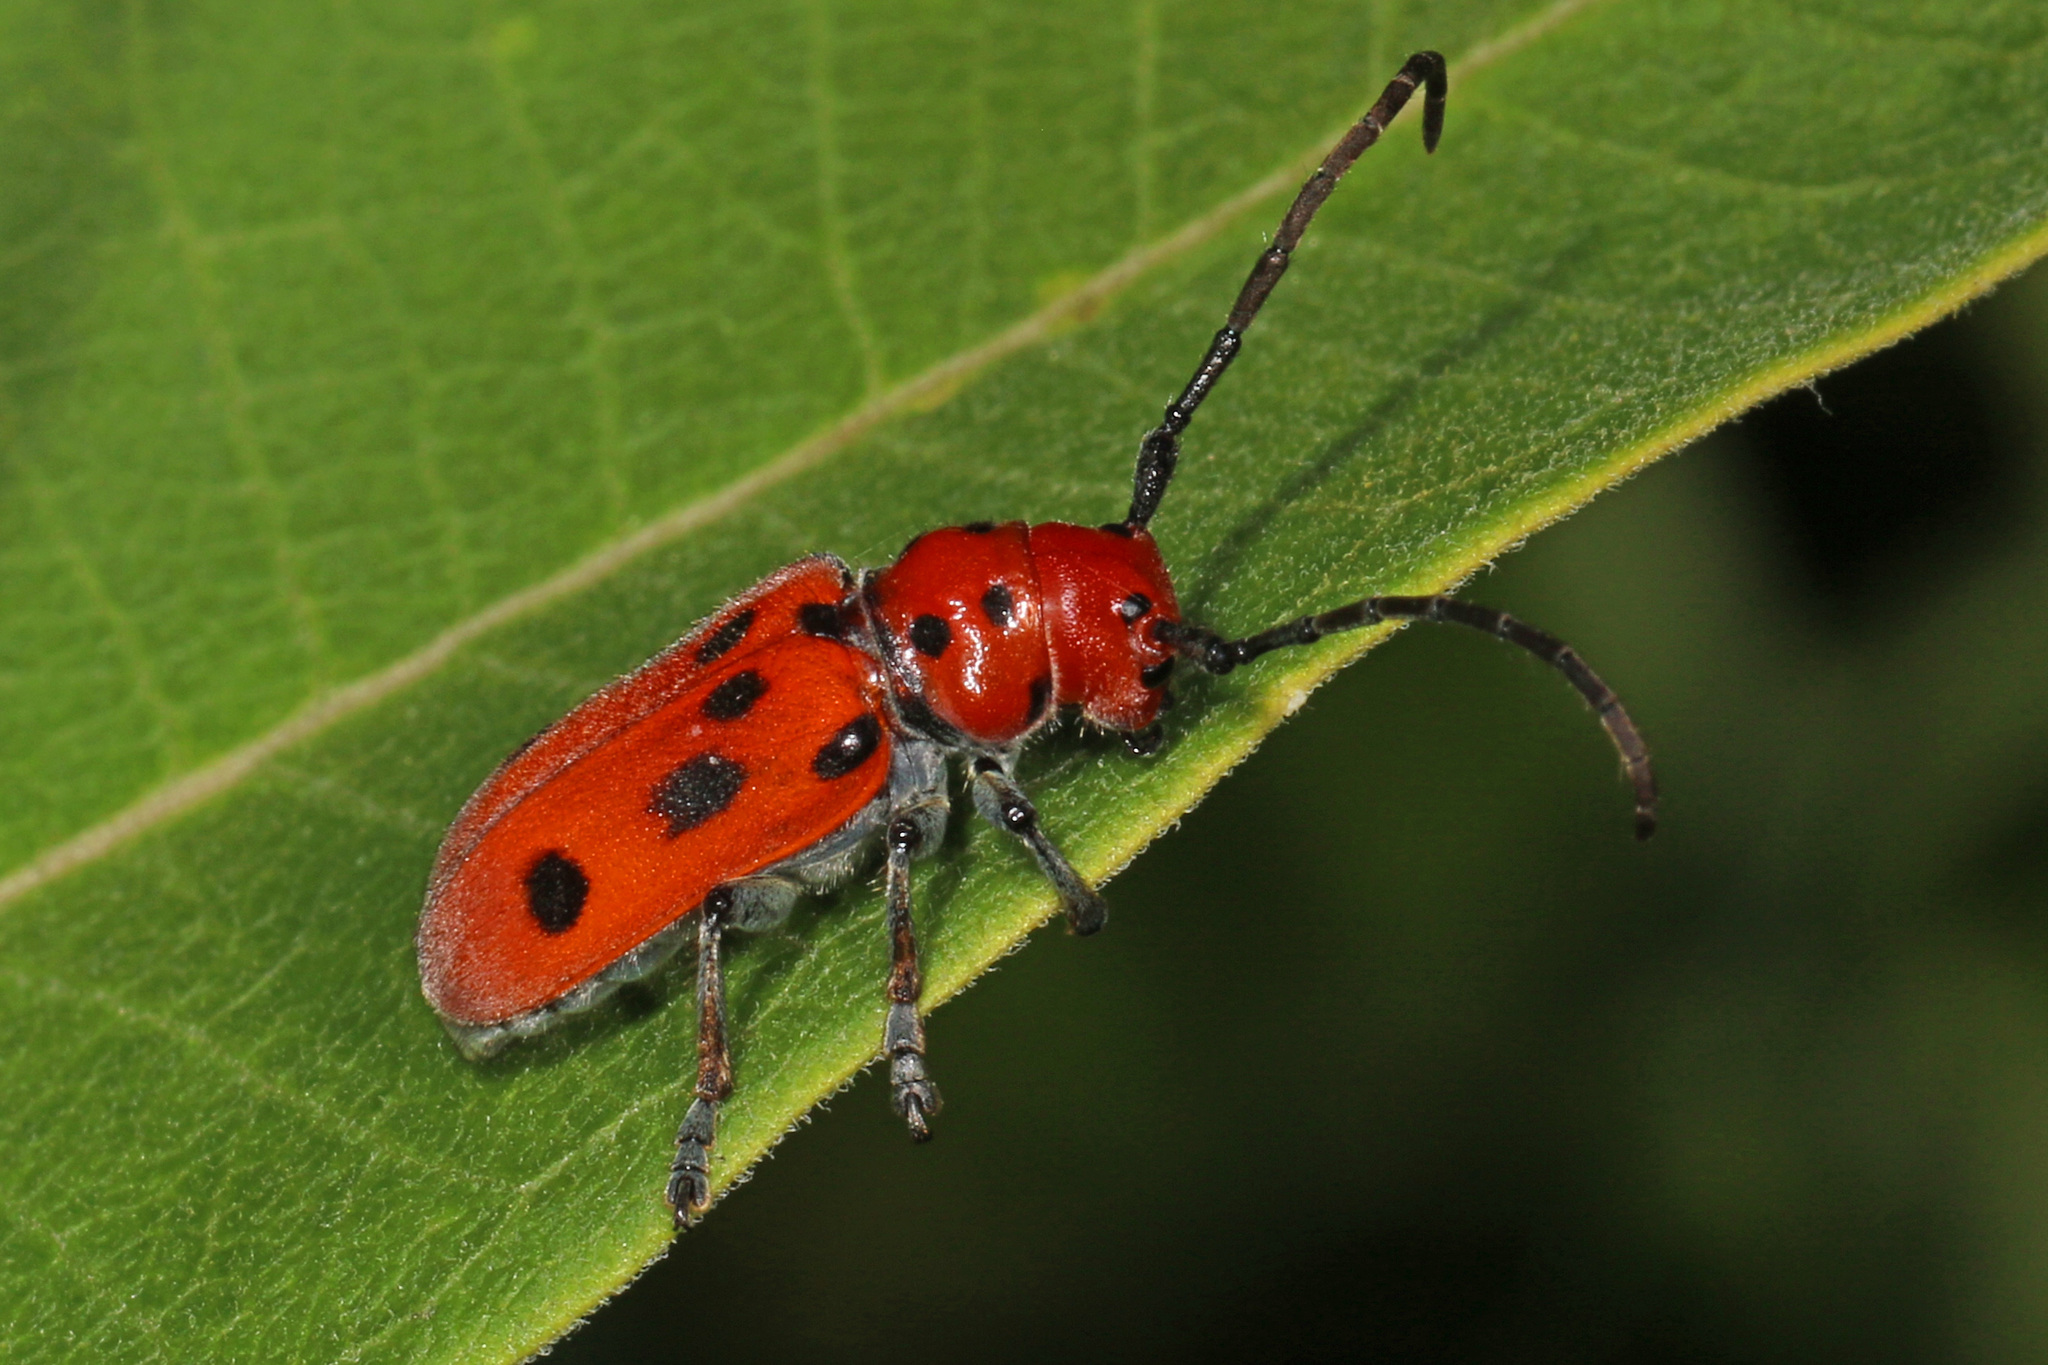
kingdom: Animalia
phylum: Arthropoda
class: Insecta
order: Coleoptera
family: Cerambycidae
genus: Tetraopes
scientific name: Tetraopes tetrophthalmus
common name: Red milkweed beetle
